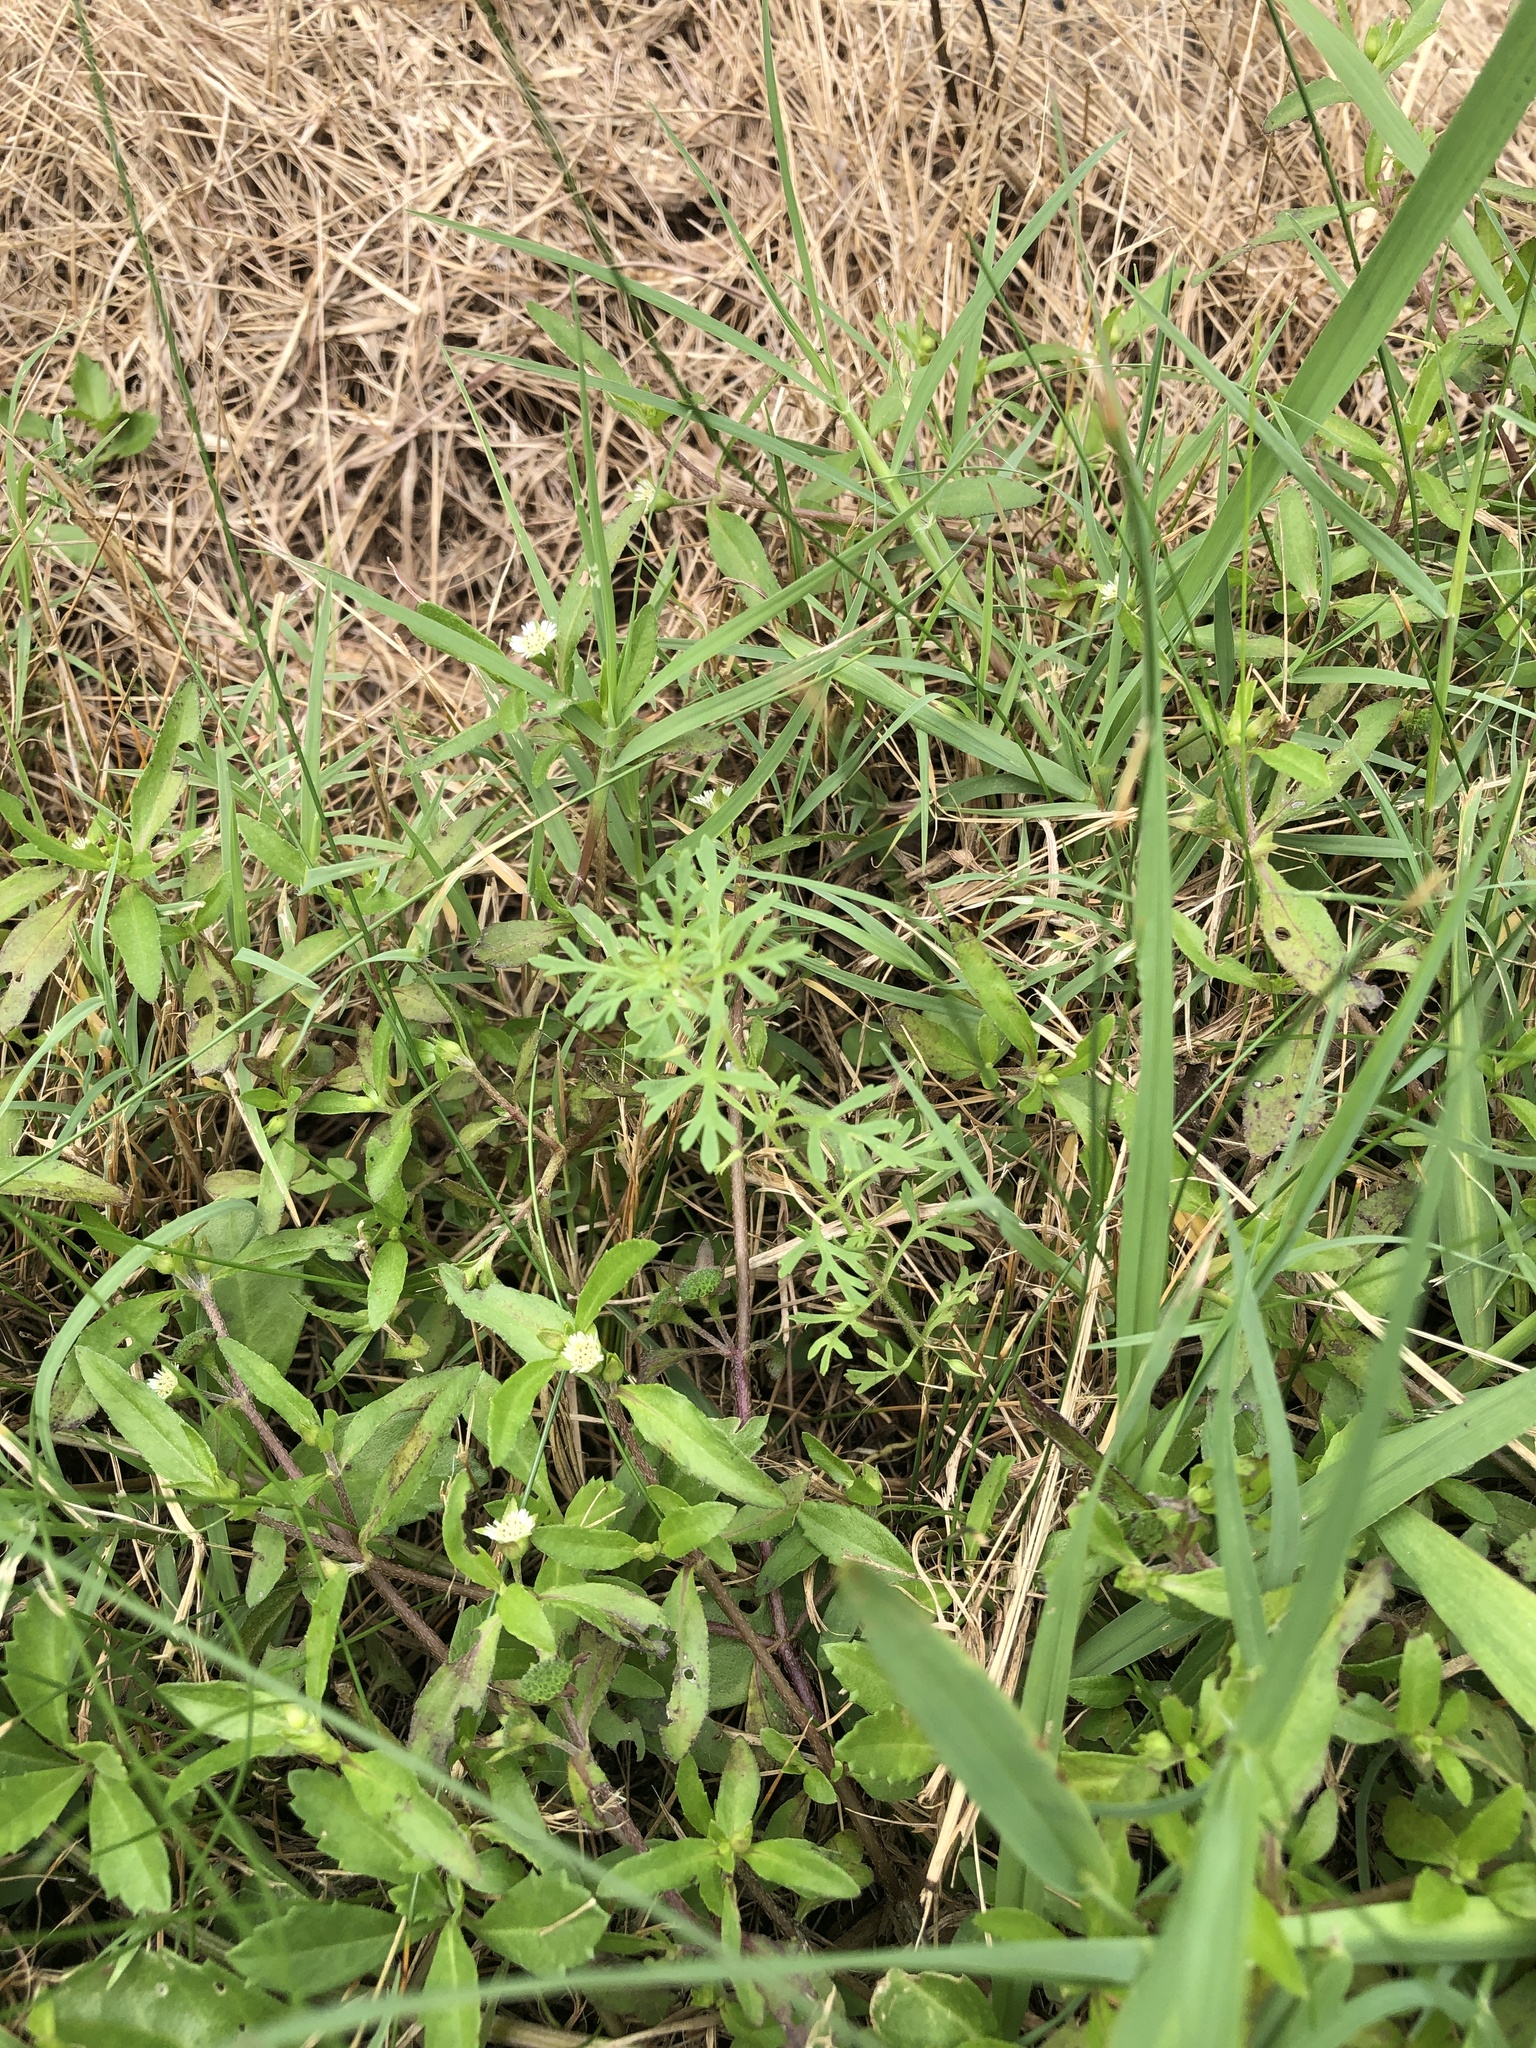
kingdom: Plantae
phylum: Tracheophyta
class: Magnoliopsida
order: Lamiales
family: Plantaginaceae
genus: Leucospora
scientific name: Leucospora multifida
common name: Narrow-leaf paleseed
